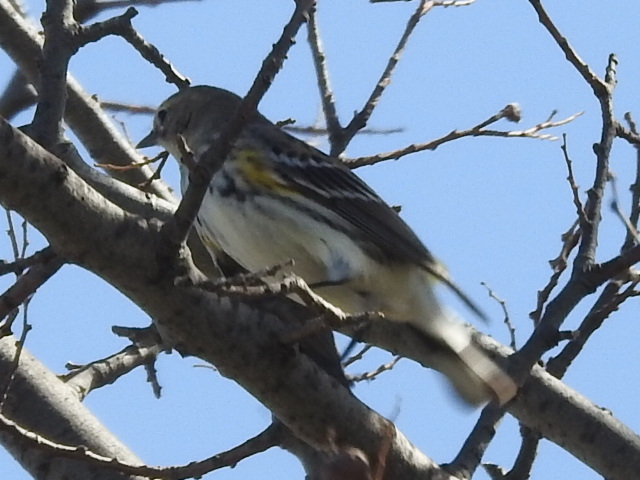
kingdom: Animalia
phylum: Chordata
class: Aves
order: Passeriformes
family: Parulidae
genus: Setophaga
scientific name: Setophaga coronata
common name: Myrtle warbler
